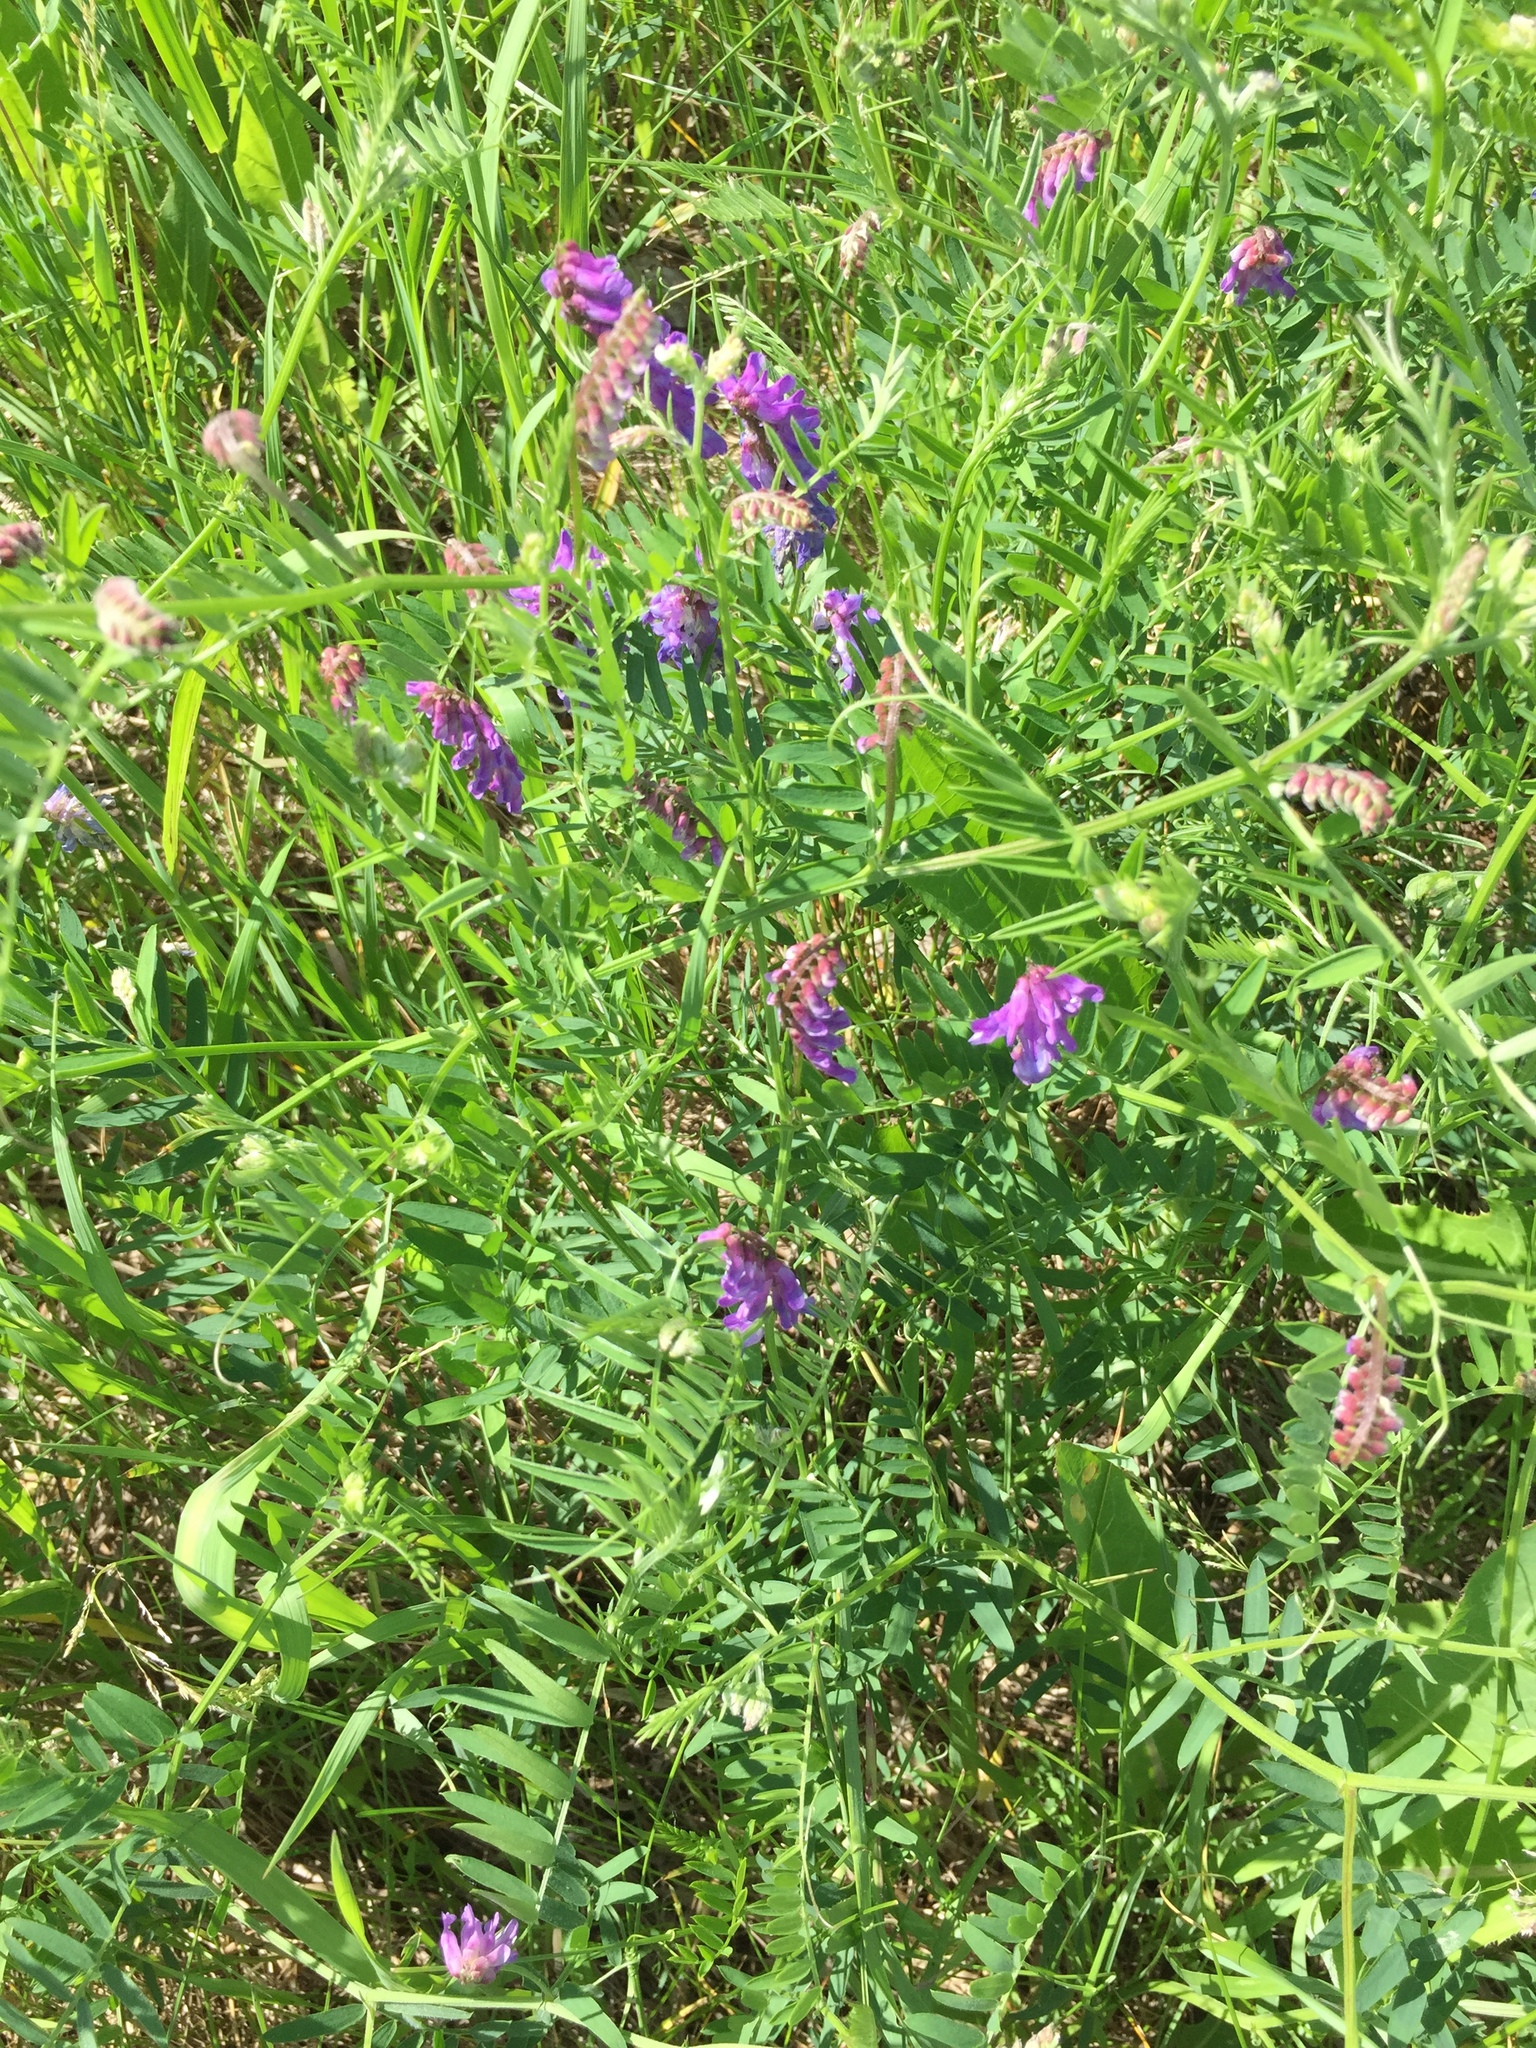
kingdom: Plantae
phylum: Tracheophyta
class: Magnoliopsida
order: Fabales
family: Fabaceae
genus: Vicia
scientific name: Vicia cracca
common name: Bird vetch
